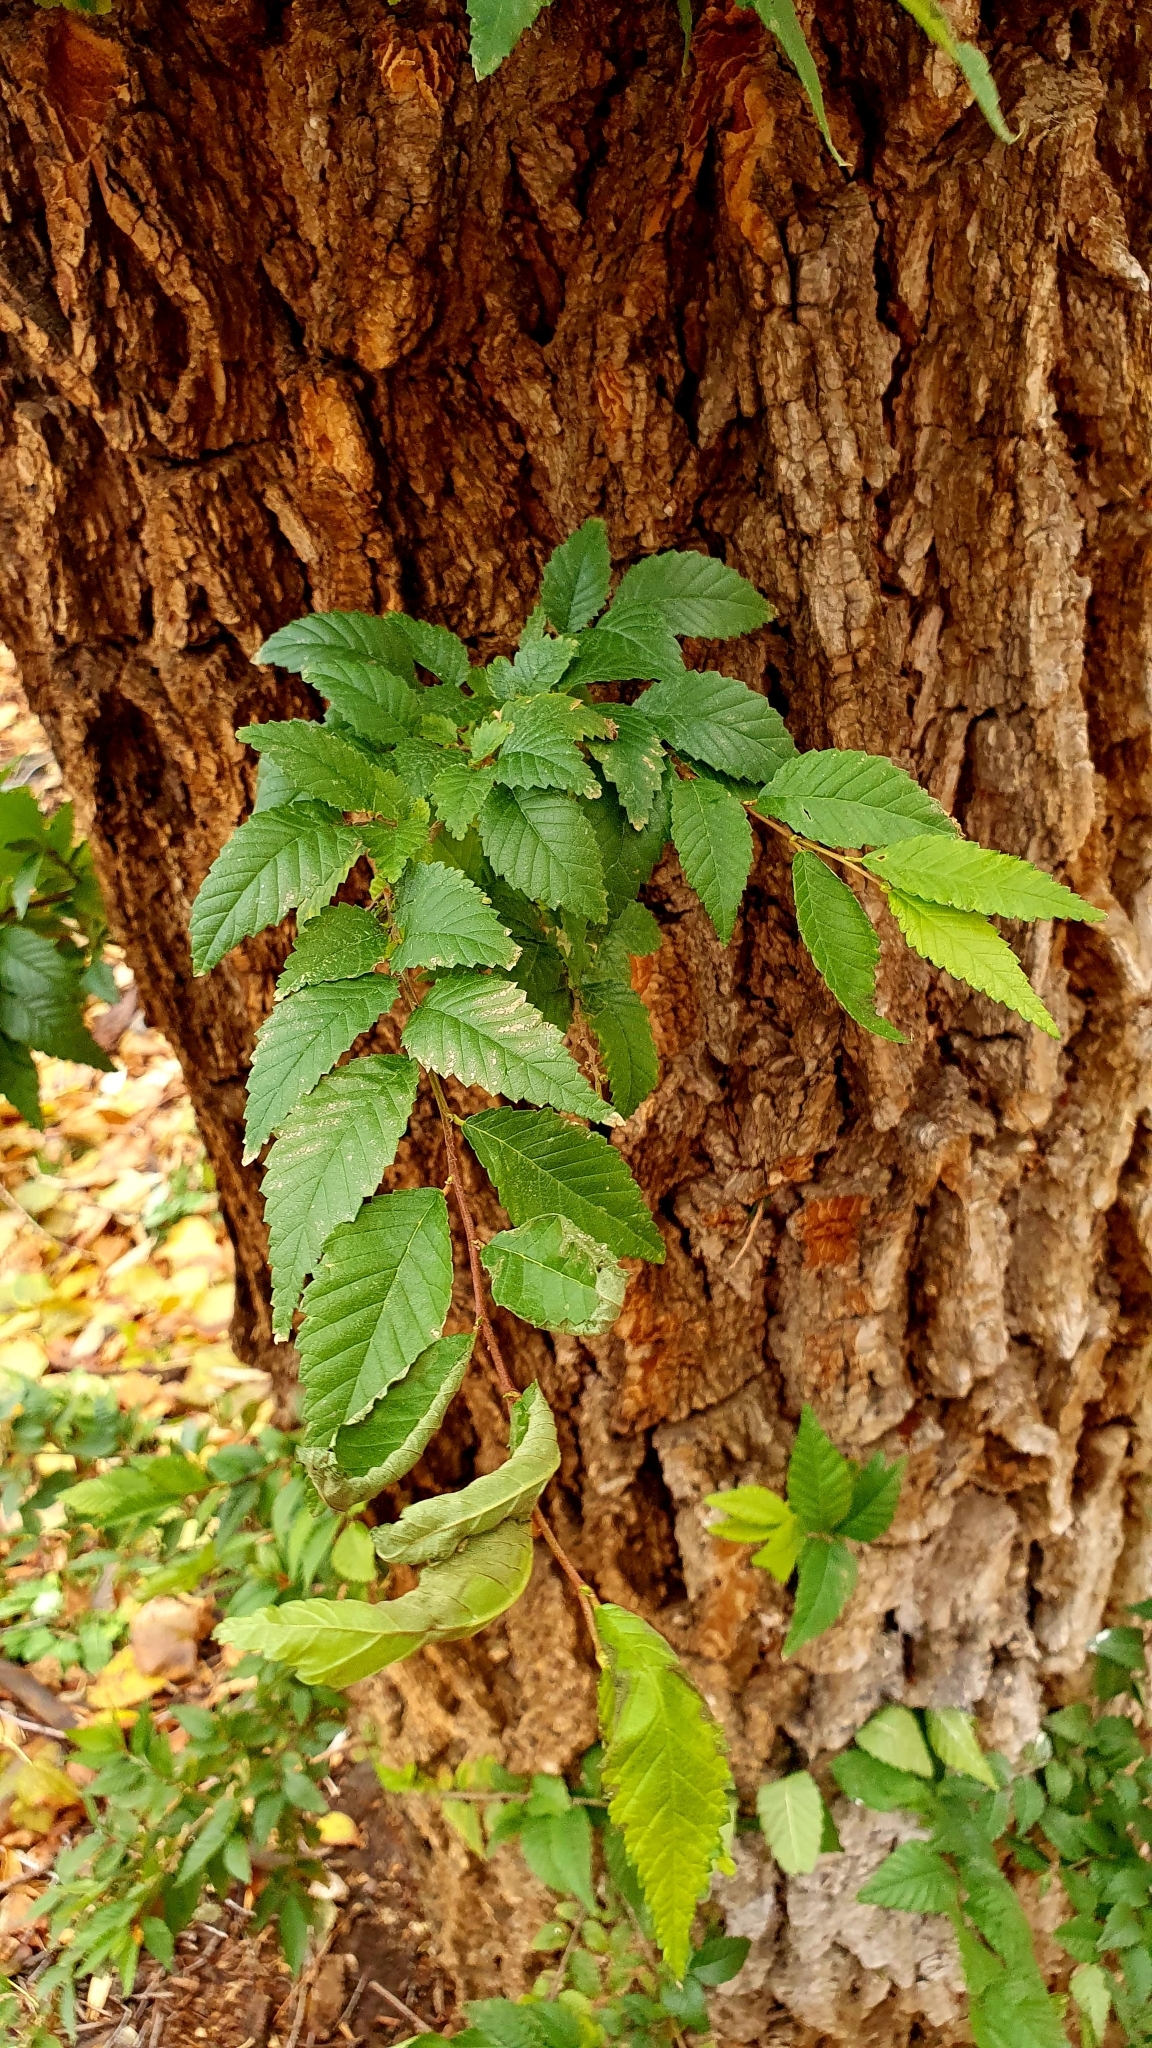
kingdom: Plantae
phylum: Tracheophyta
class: Magnoliopsida
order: Rosales
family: Ulmaceae
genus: Ulmus
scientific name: Ulmus pumila
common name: Siberian elm
